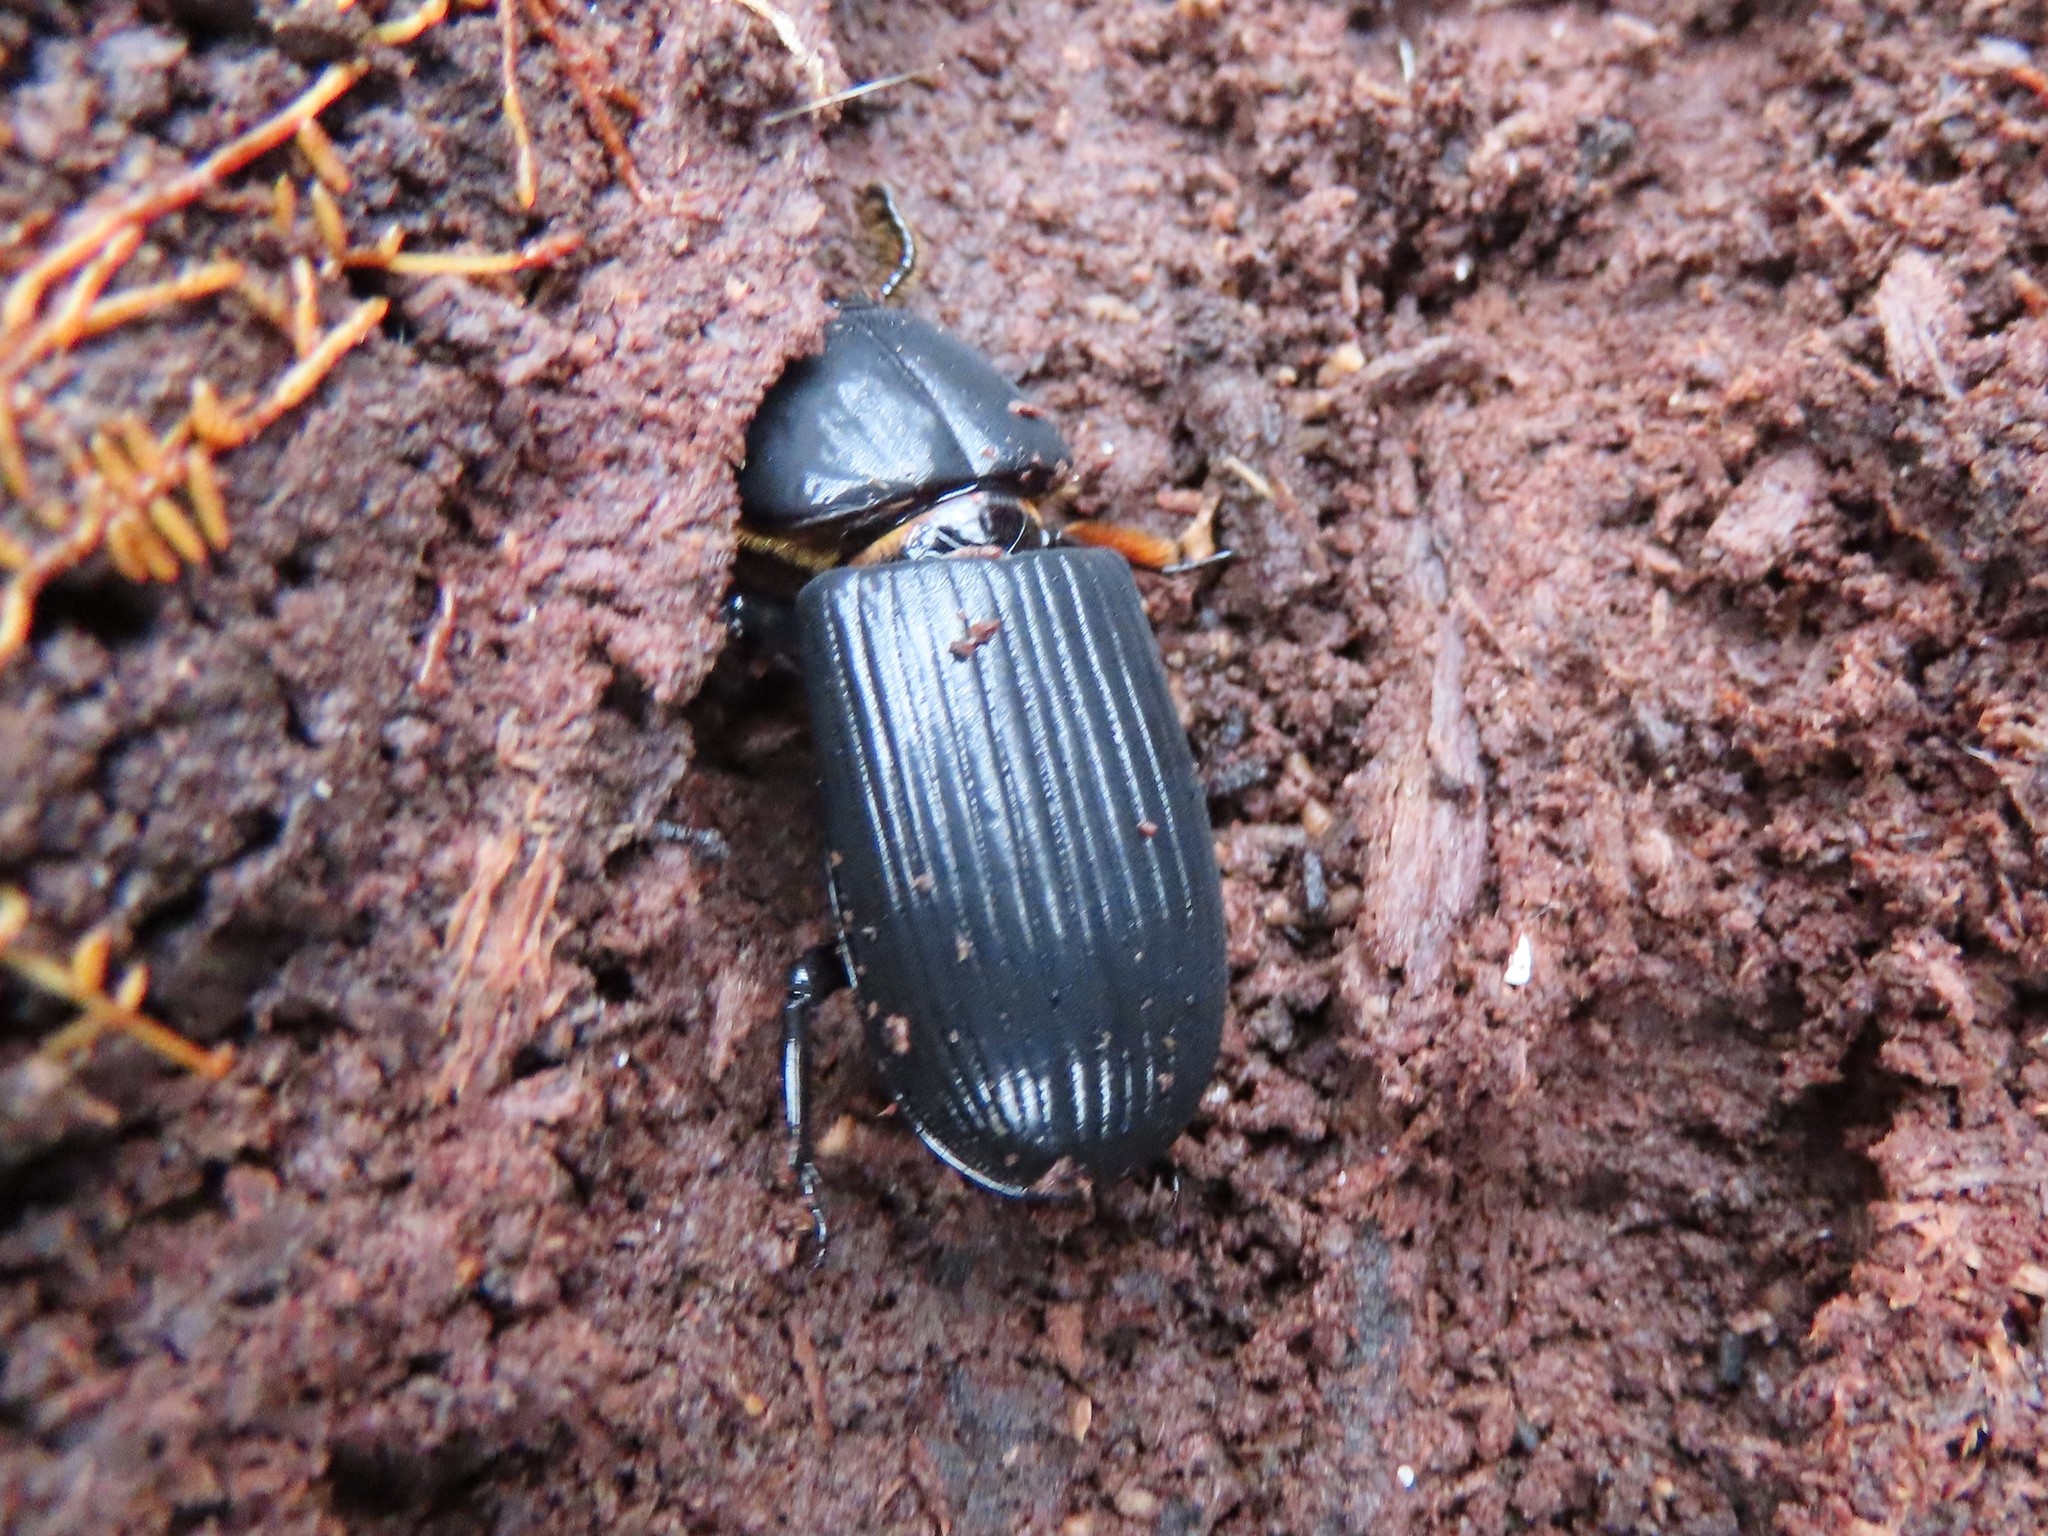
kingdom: Animalia
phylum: Arthropoda
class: Insecta
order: Coleoptera
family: Passalidae
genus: Odontotaenius
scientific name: Odontotaenius disjunctus
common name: Patent leather beetle
